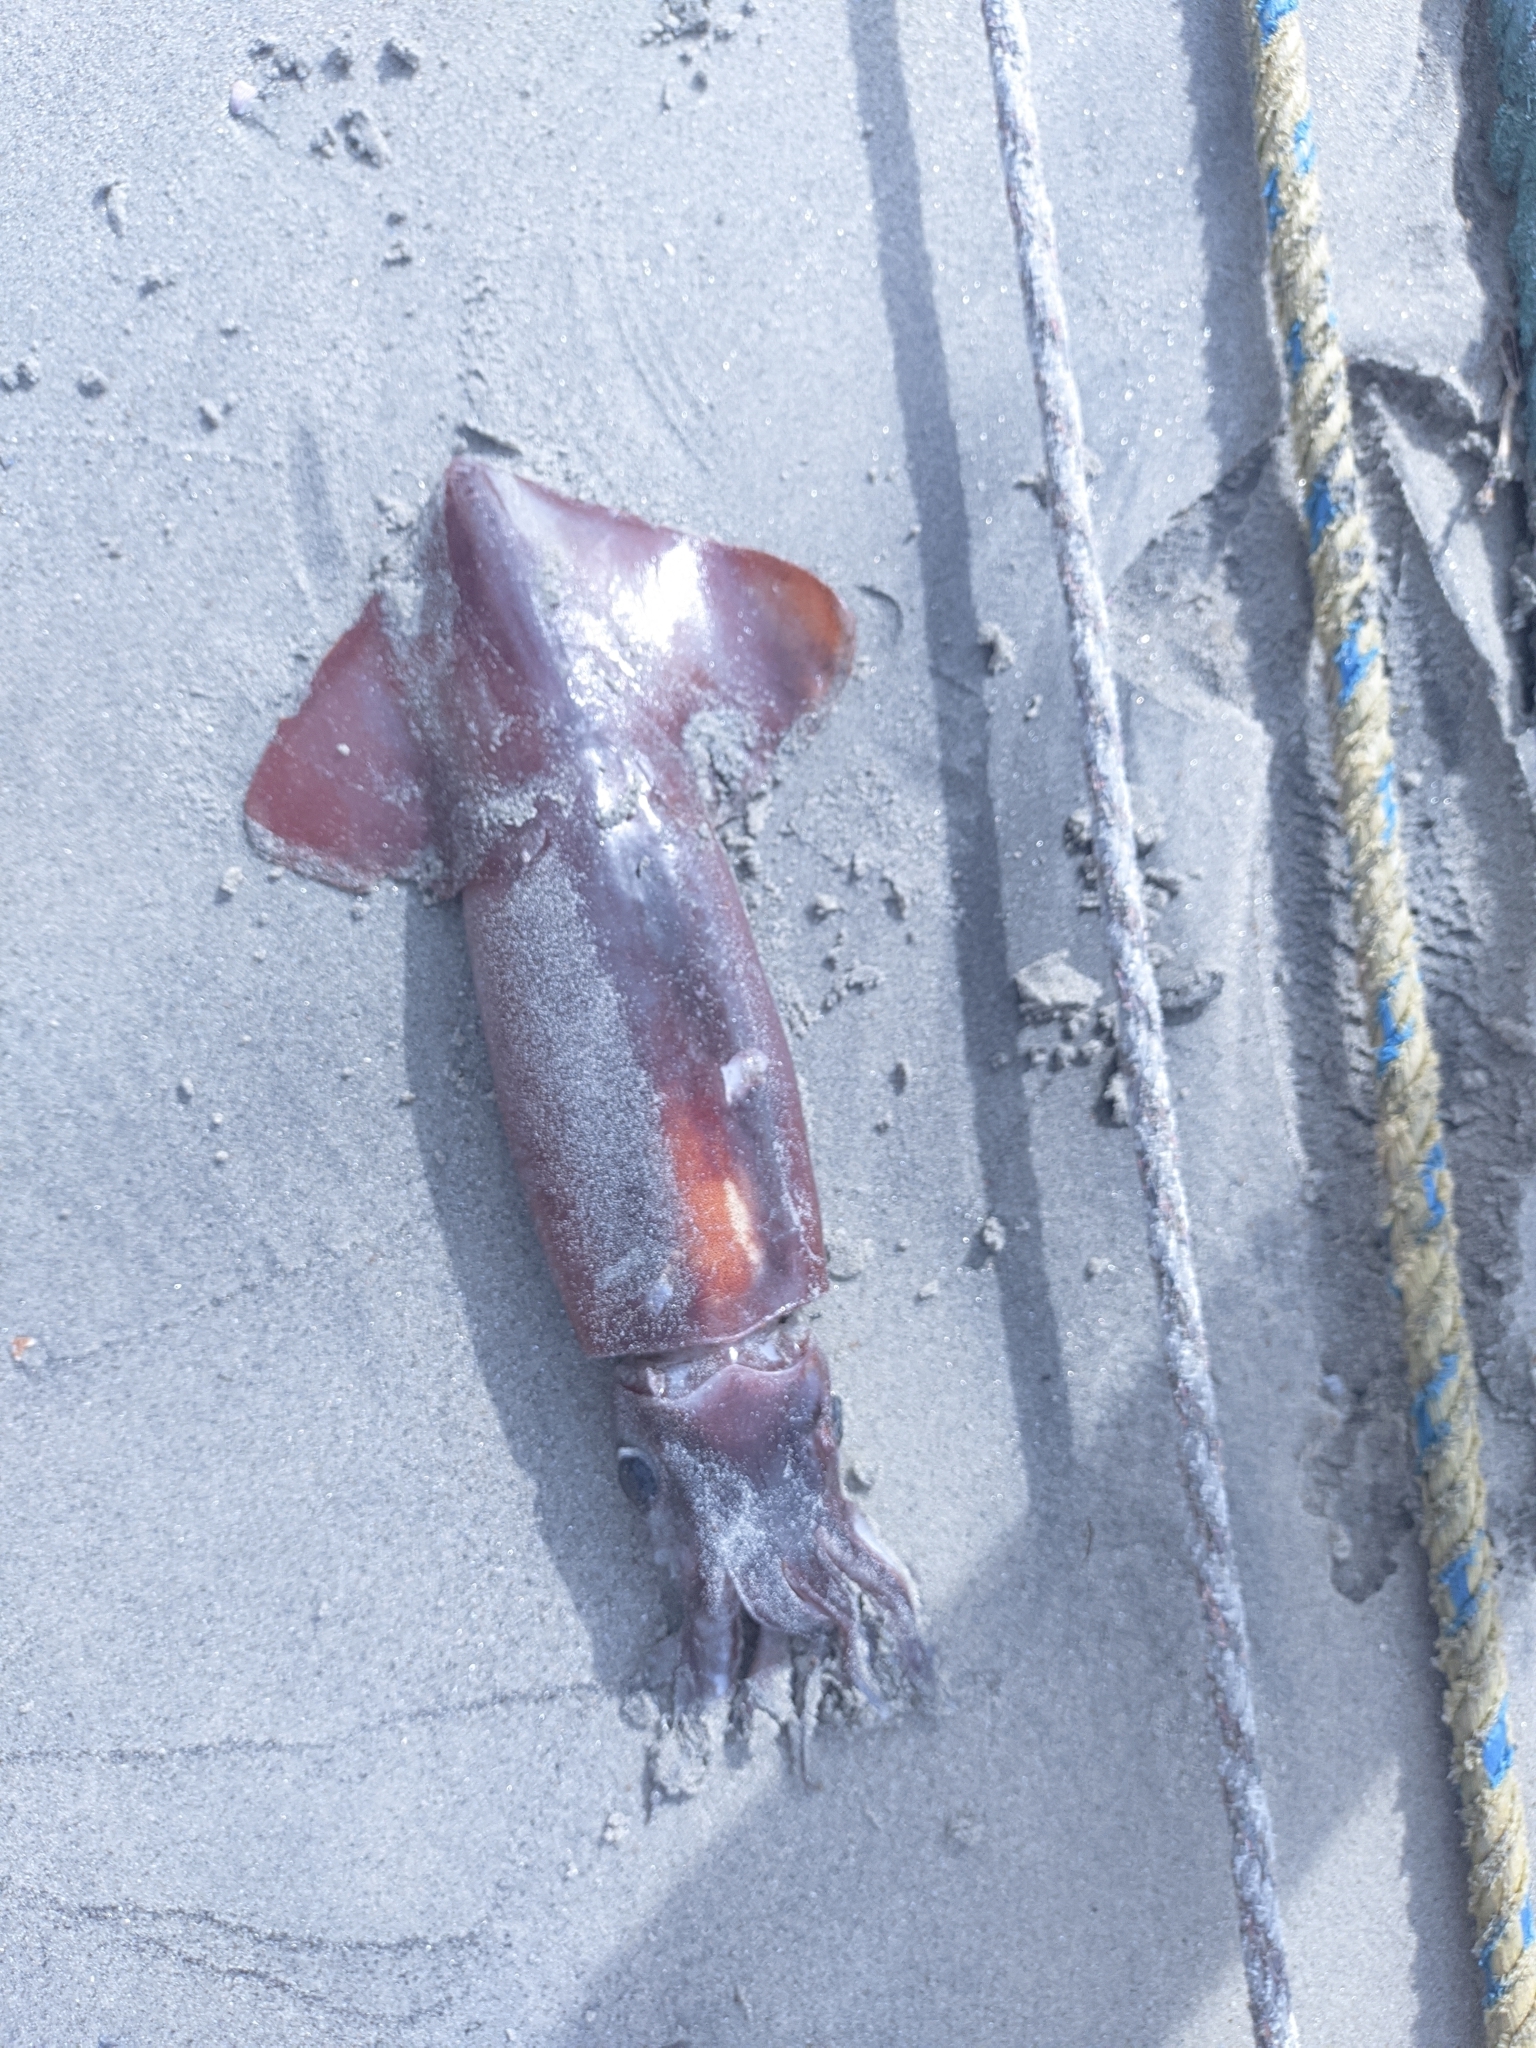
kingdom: Animalia
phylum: Mollusca
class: Cephalopoda
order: Oegopsida
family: Ommastrephidae
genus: Sthenoteuthis
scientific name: Sthenoteuthis pteropus
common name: Orangeback flying squid
